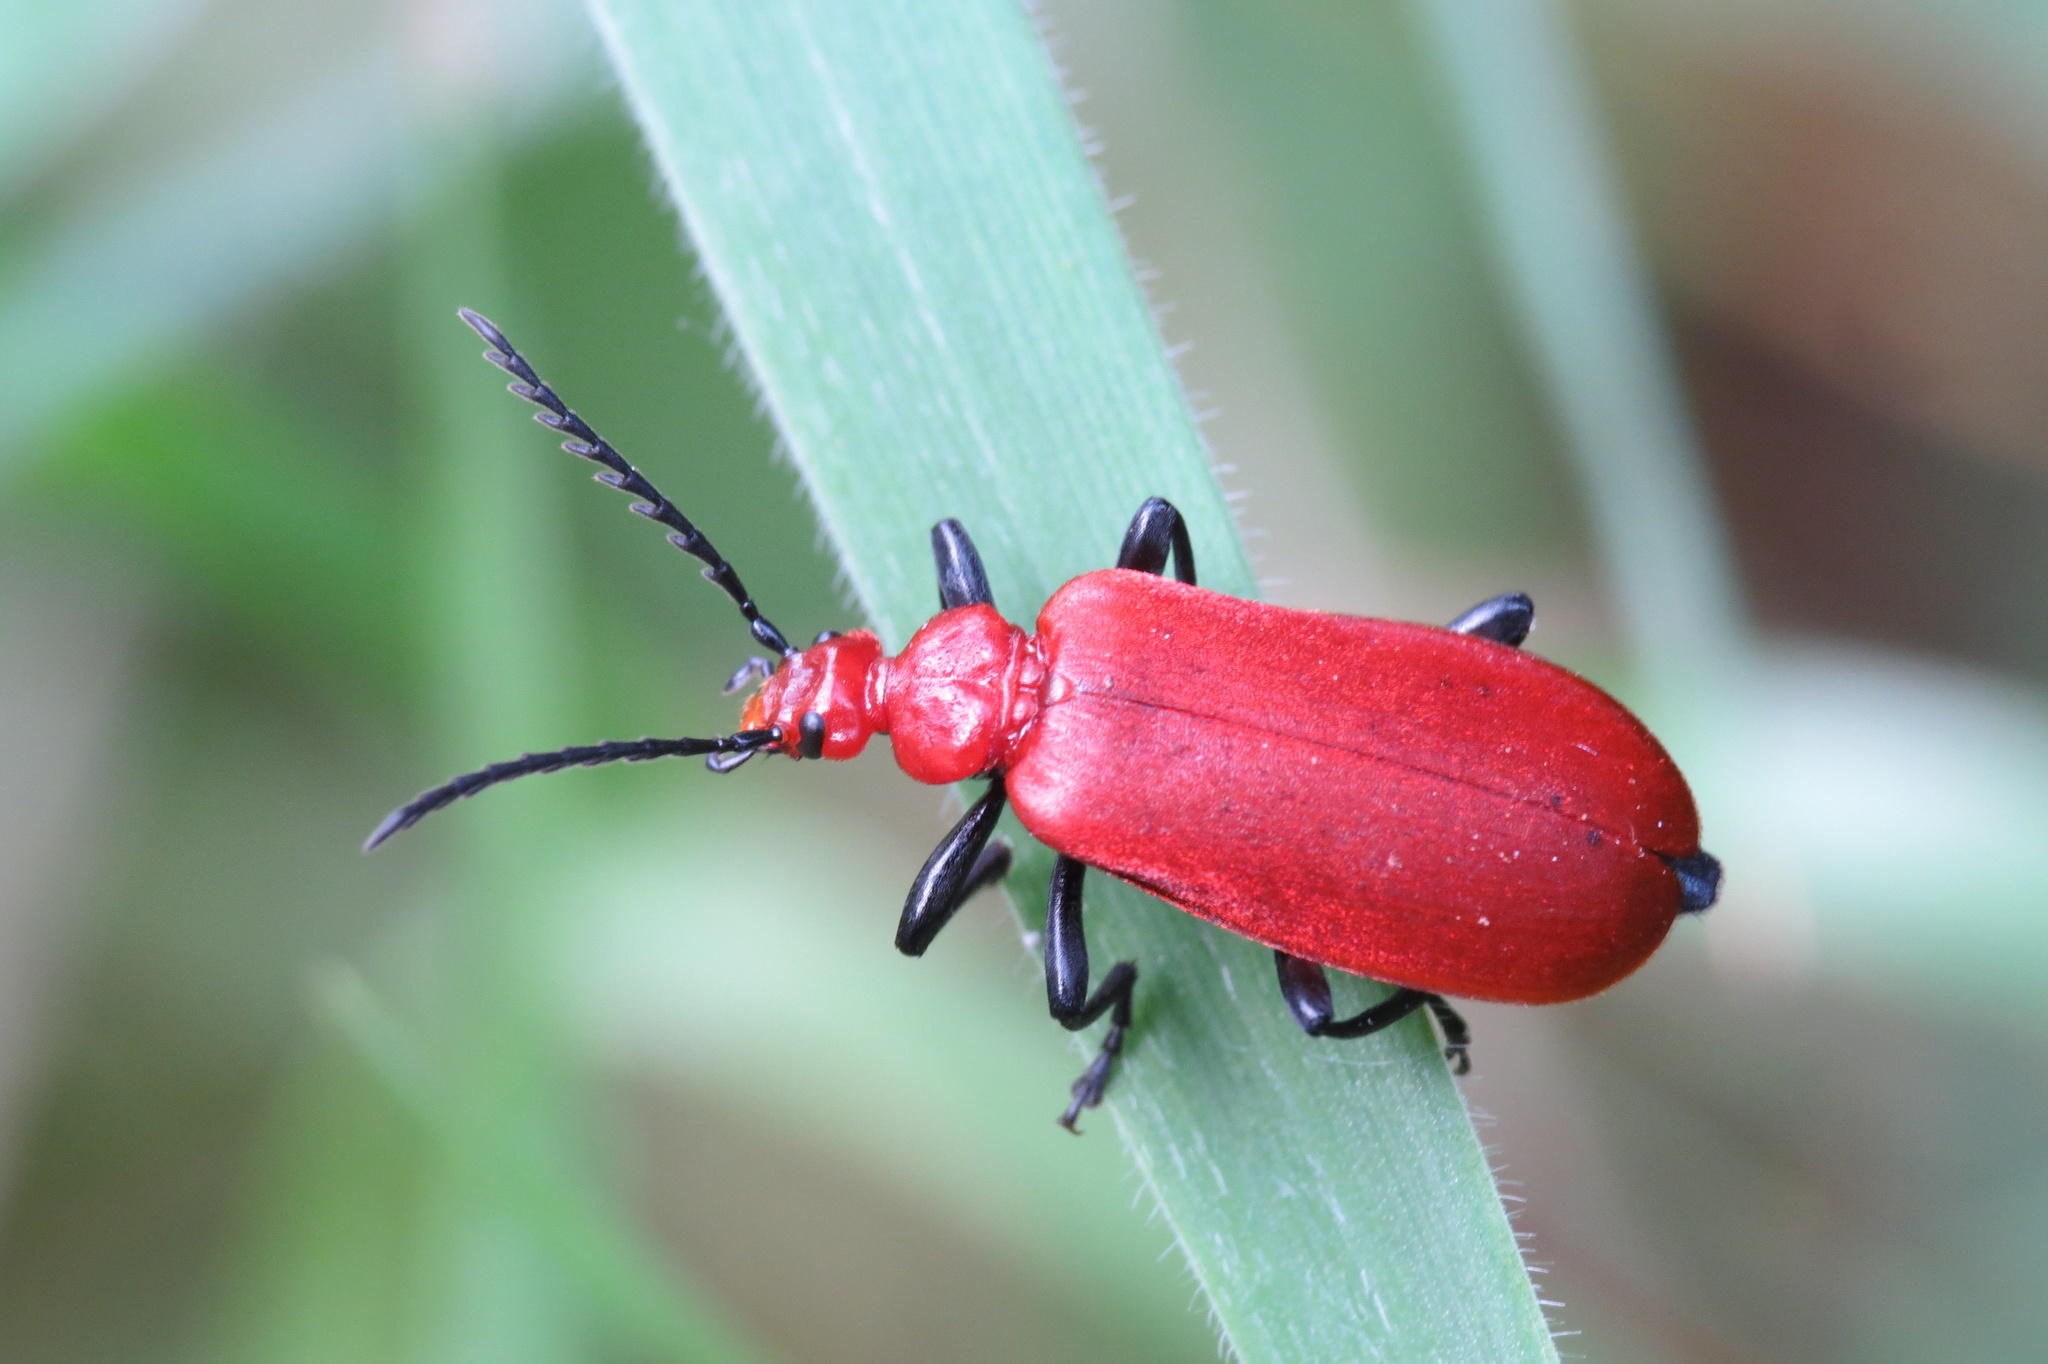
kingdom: Animalia
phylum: Arthropoda
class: Insecta
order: Coleoptera
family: Pyrochroidae
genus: Pyrochroa
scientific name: Pyrochroa serraticornis
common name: Red-headed cardinal beetle
